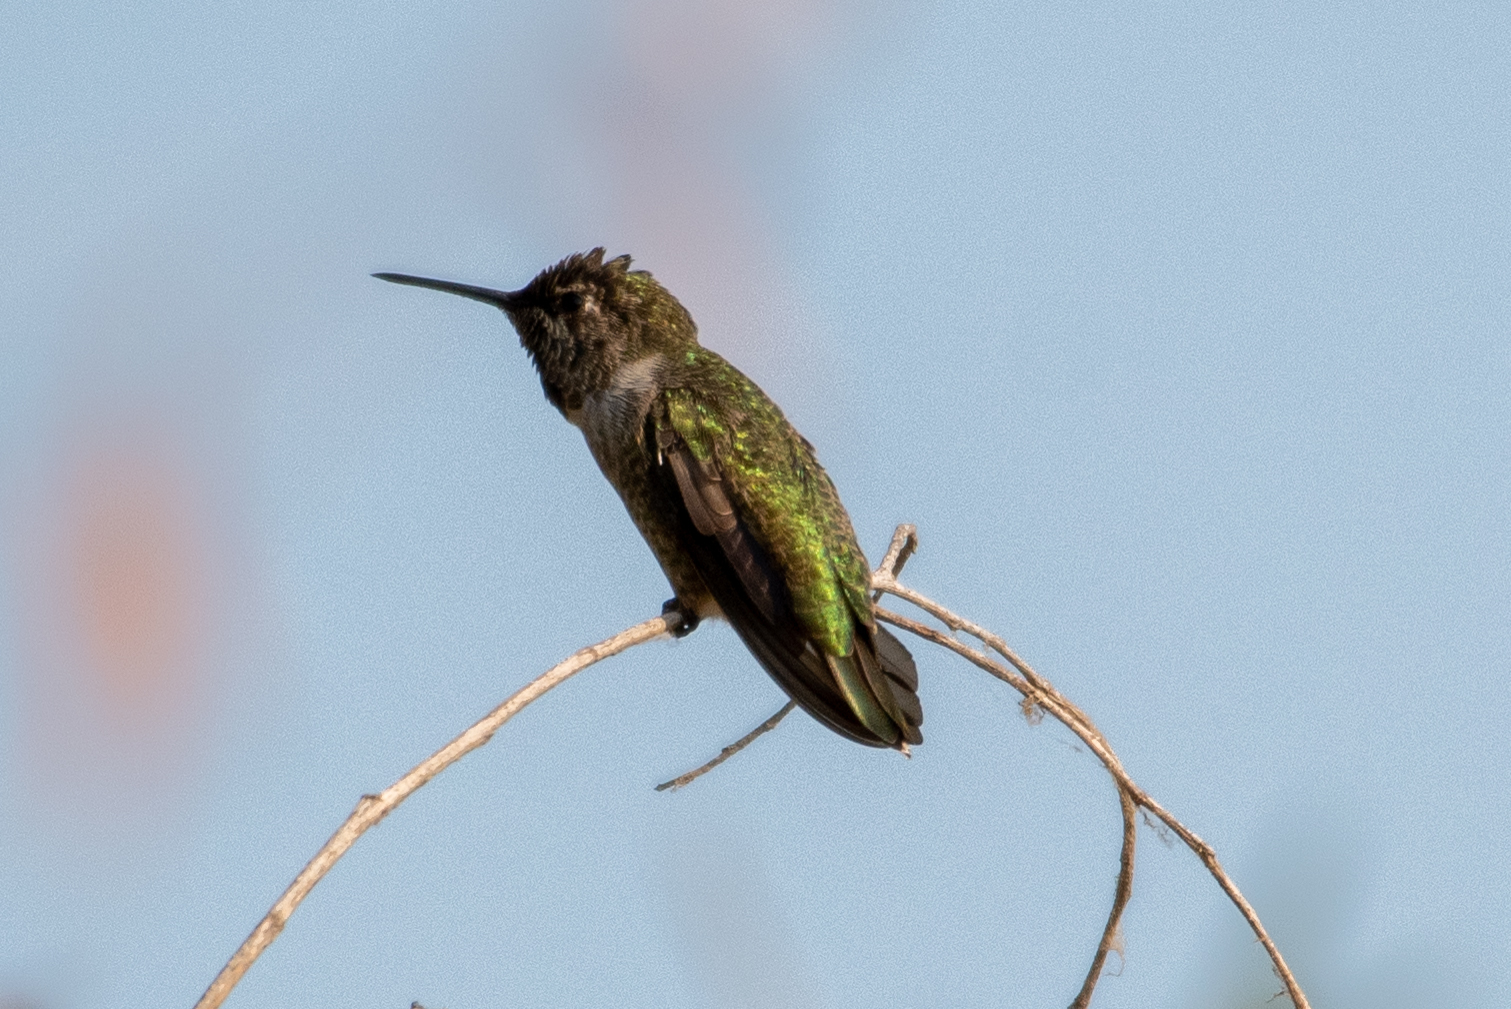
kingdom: Animalia
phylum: Chordata
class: Aves
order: Apodiformes
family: Trochilidae
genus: Calypte
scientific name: Calypte anna
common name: Anna's hummingbird
